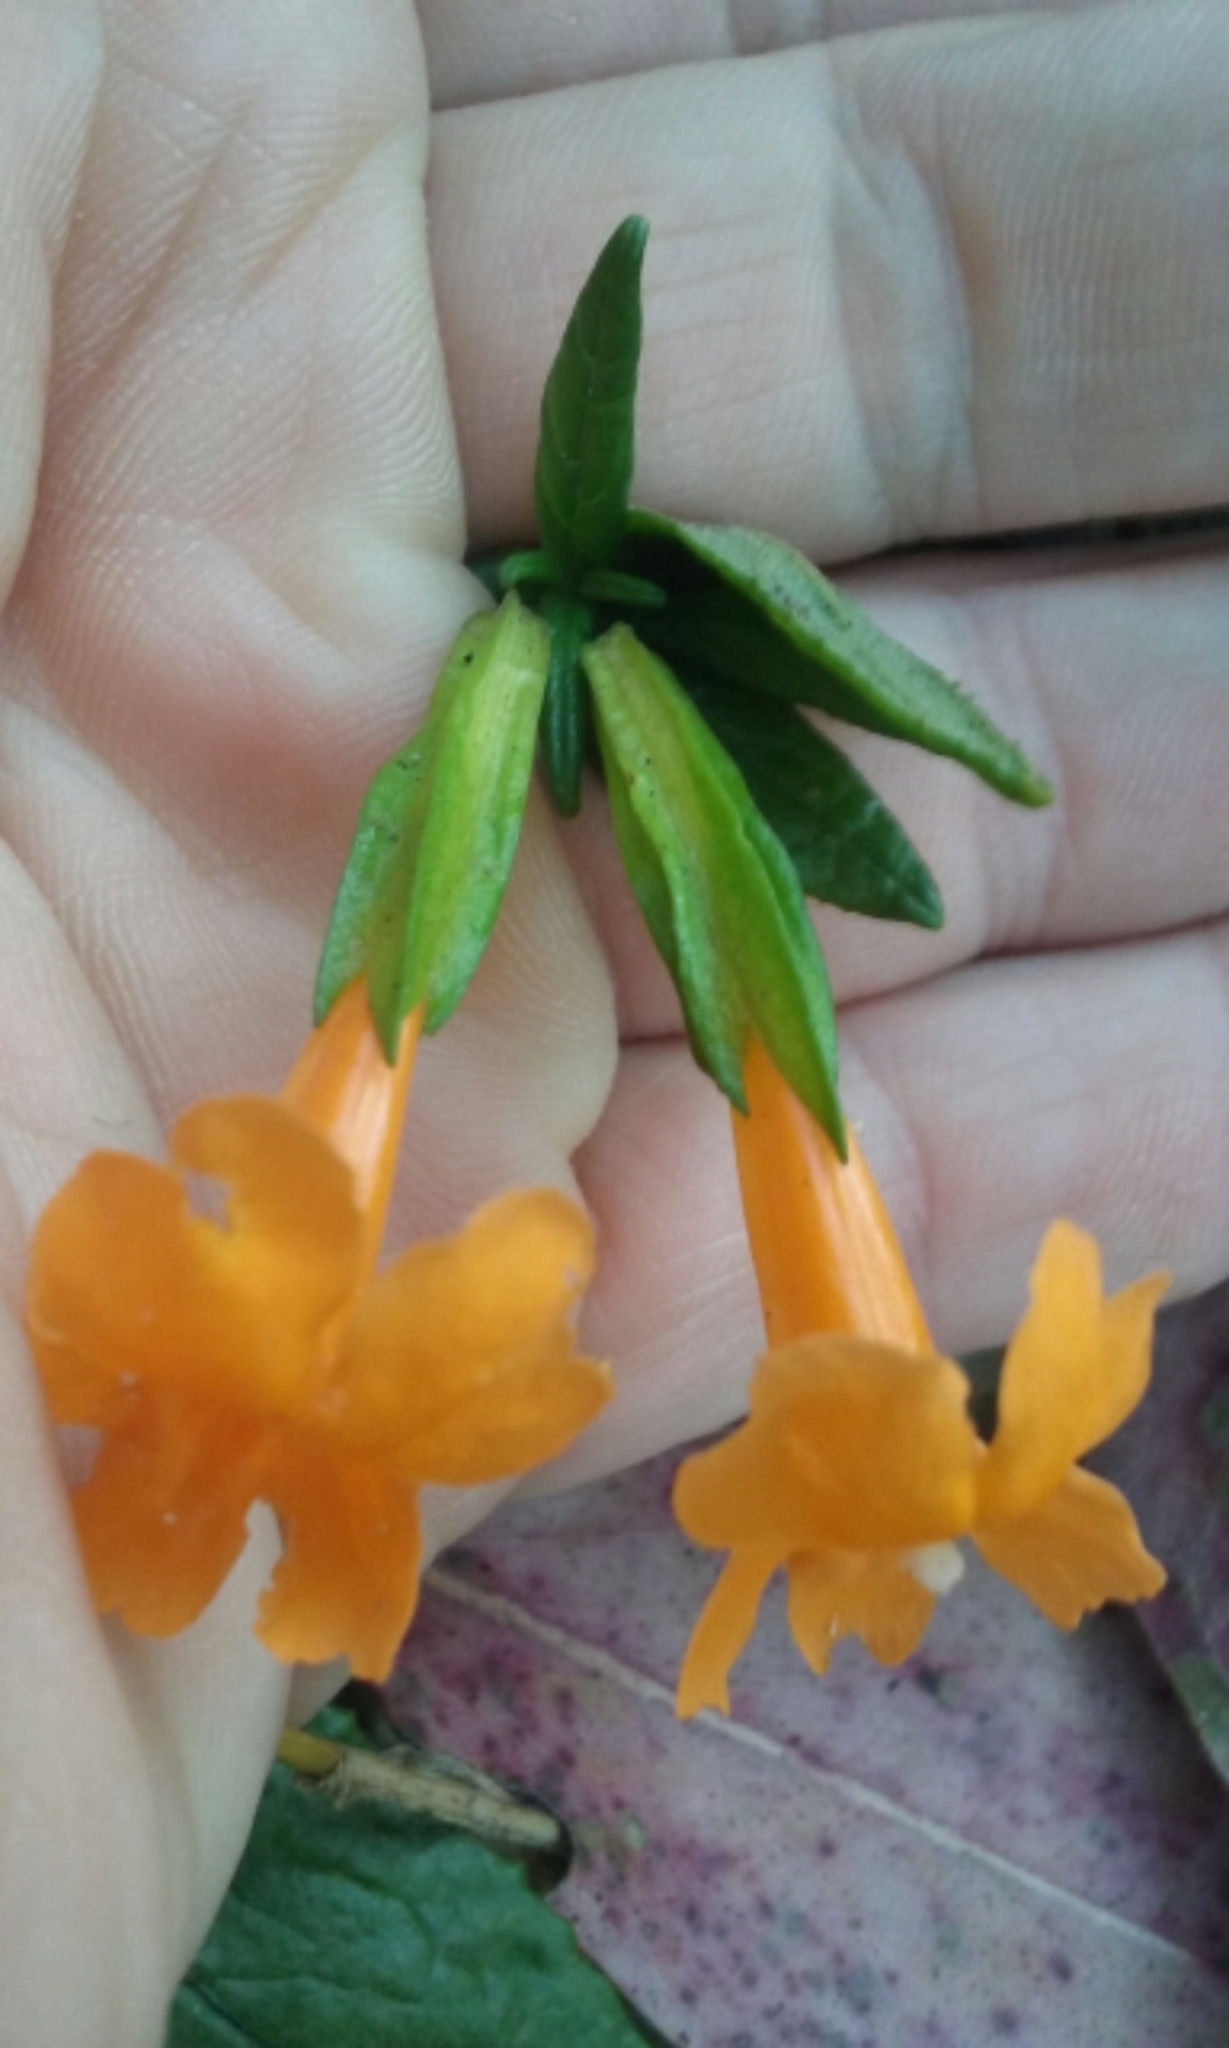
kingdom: Plantae
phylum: Tracheophyta
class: Magnoliopsida
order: Lamiales
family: Phrymaceae
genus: Diplacus
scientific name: Diplacus aurantiacus
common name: Bush monkey-flower
